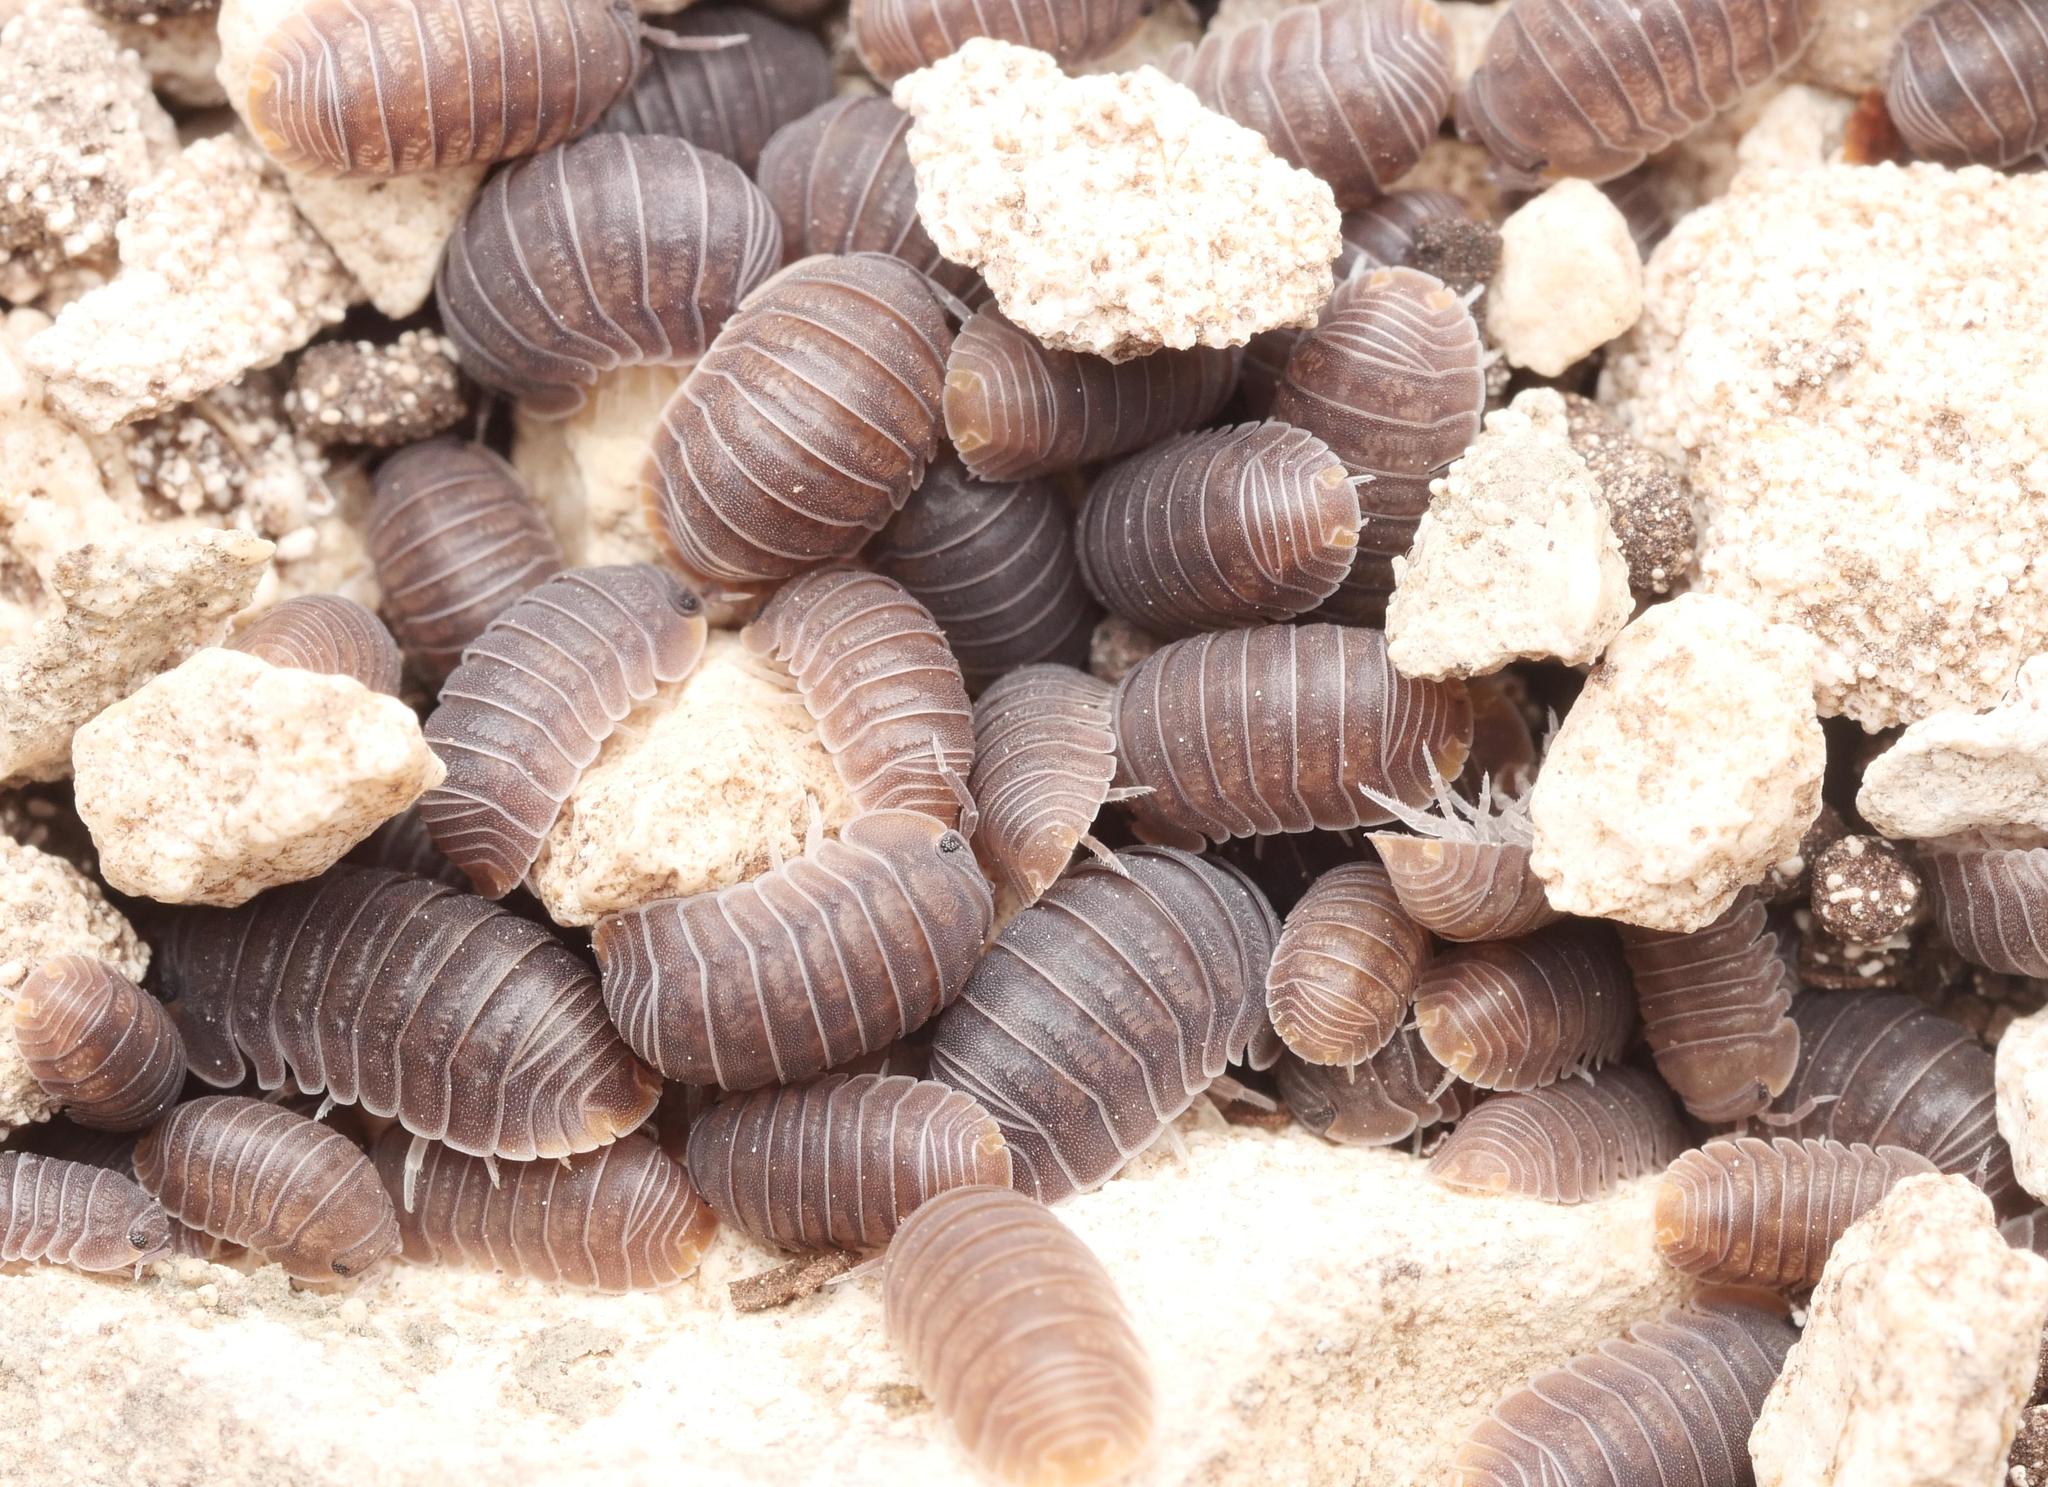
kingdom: Animalia
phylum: Arthropoda
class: Malacostraca
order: Isopoda
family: Armadillidae
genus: Cubaris
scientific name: Cubaris murina
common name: Pillbug
